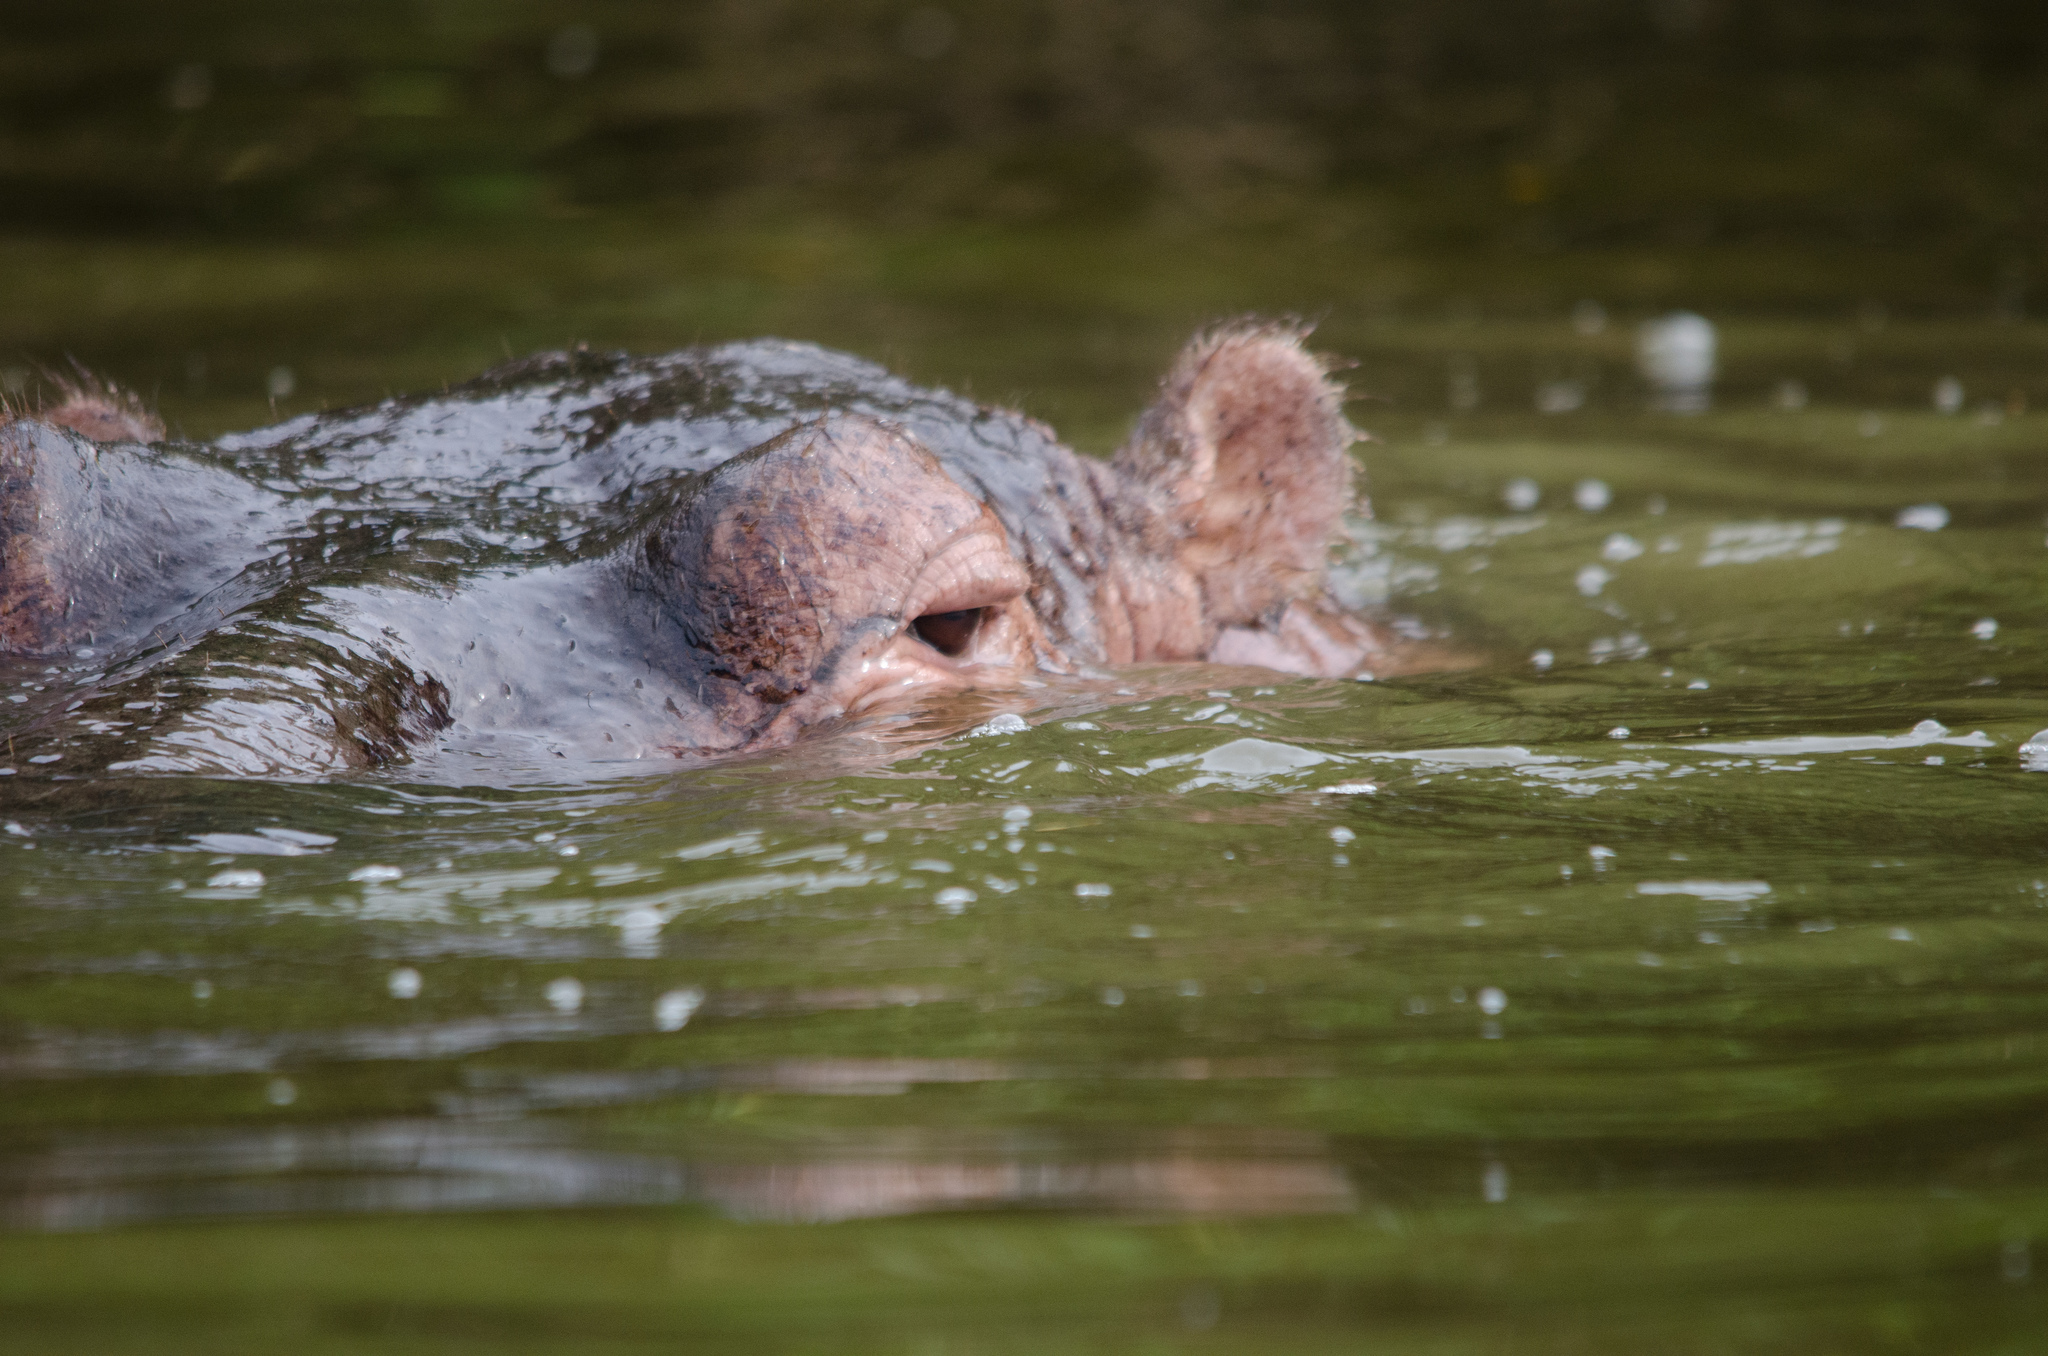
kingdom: Animalia
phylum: Chordata
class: Mammalia
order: Artiodactyla
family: Hippopotamidae
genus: Hippopotamus
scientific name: Hippopotamus amphibius
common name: Common hippopotamus
